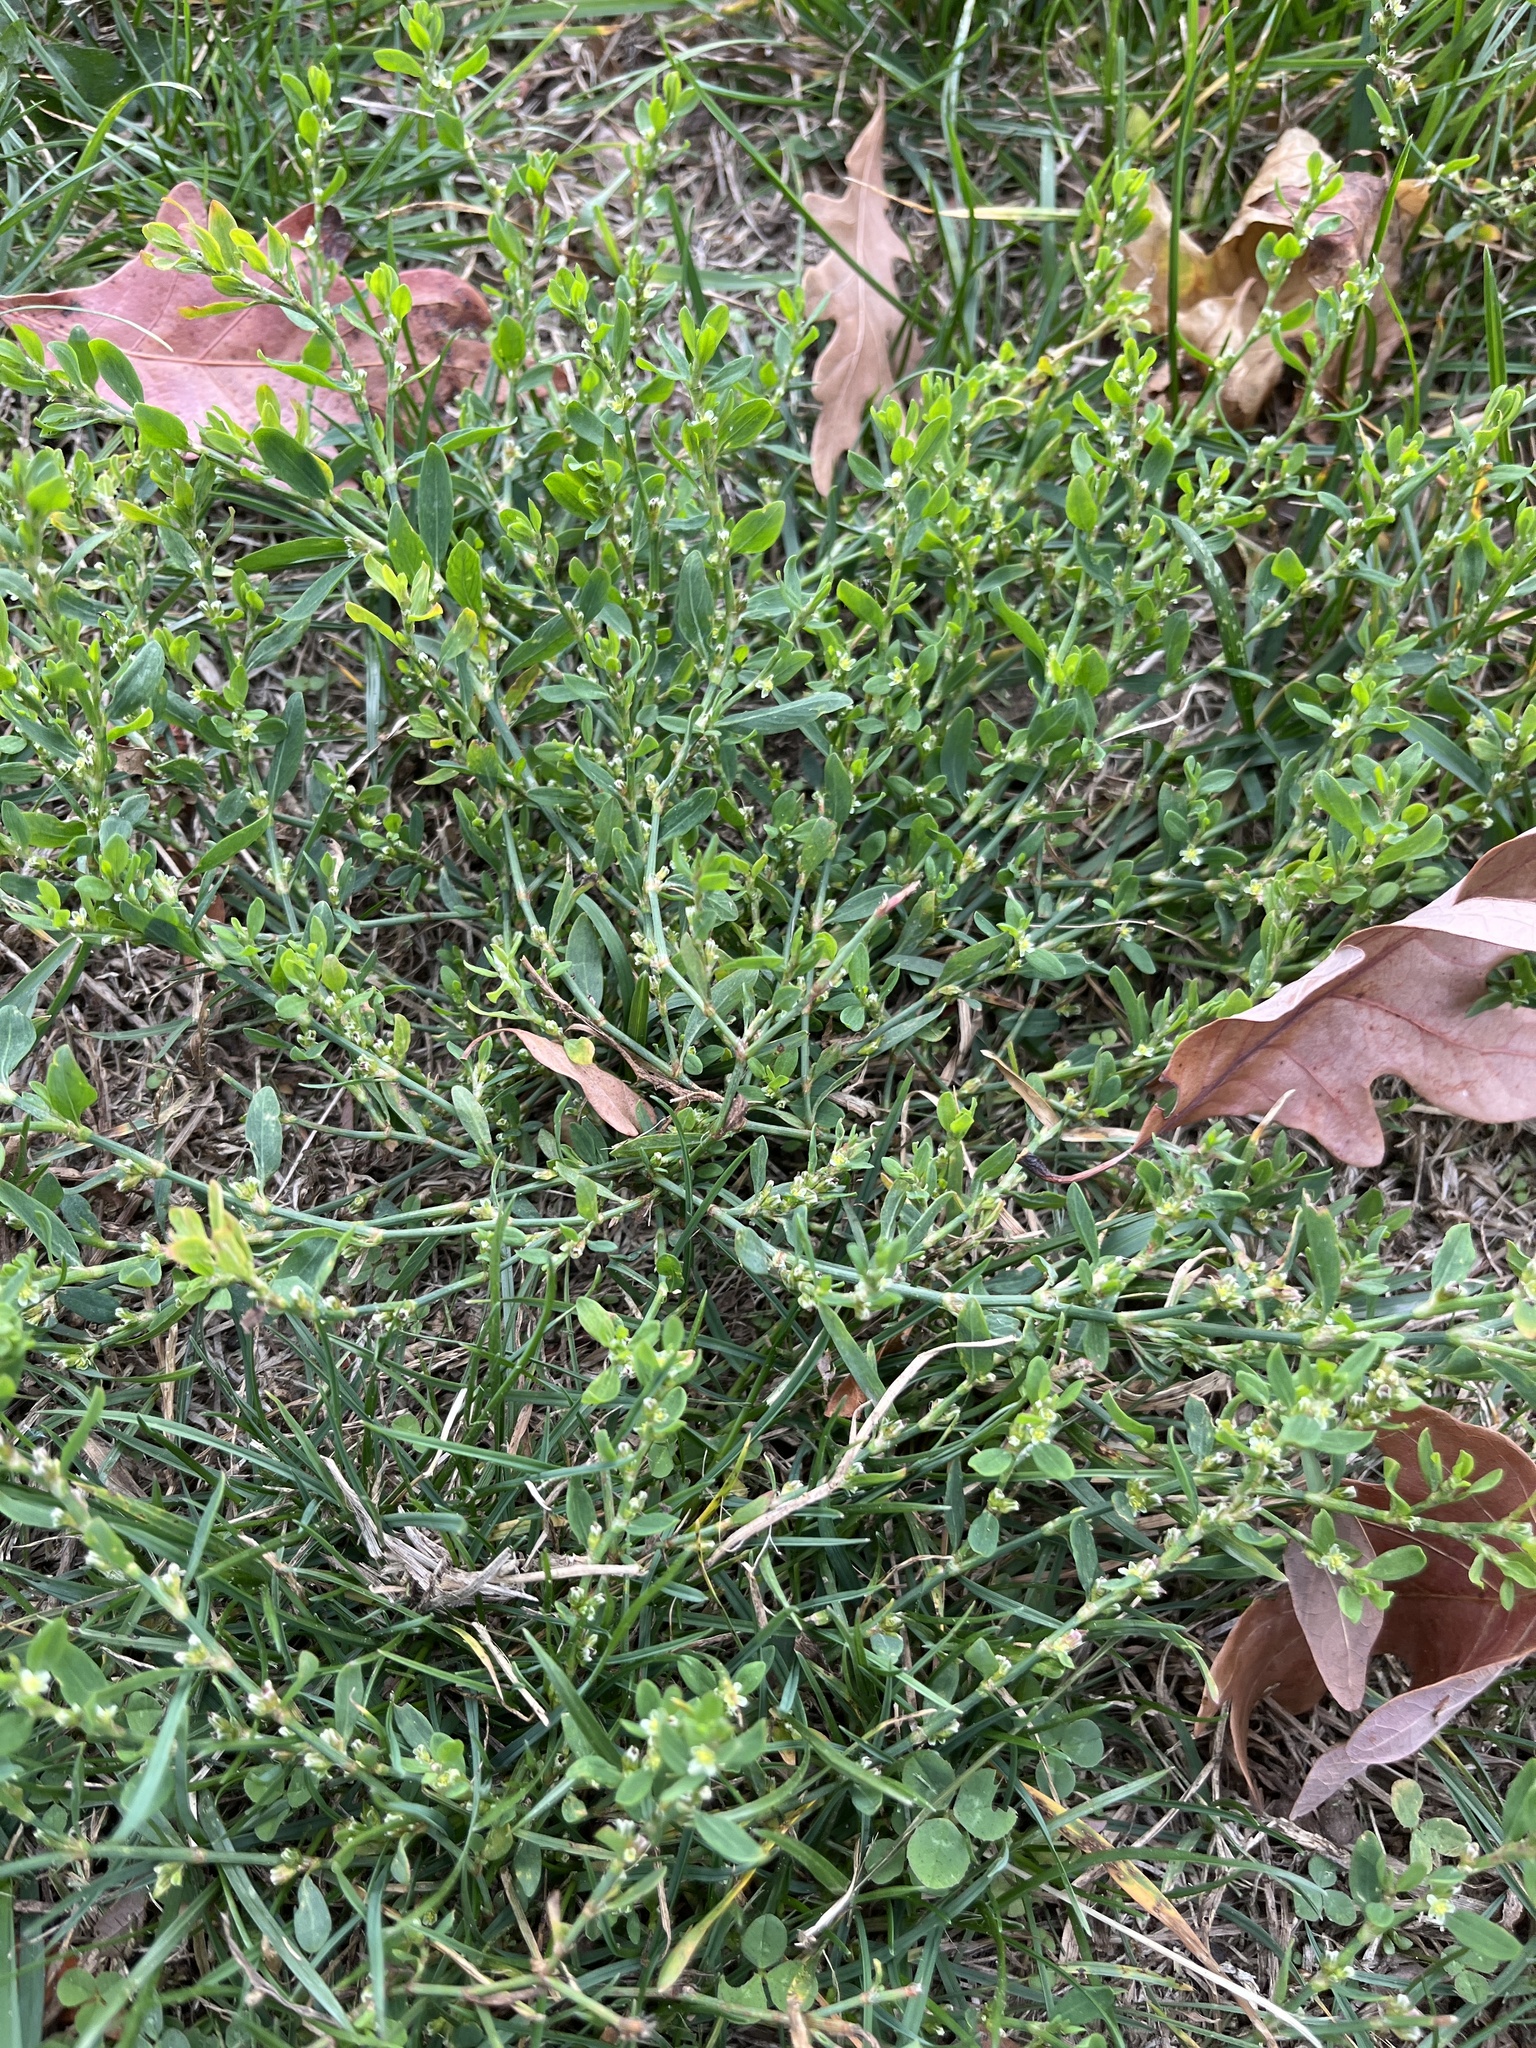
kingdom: Plantae
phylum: Tracheophyta
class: Magnoliopsida
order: Caryophyllales
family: Polygonaceae
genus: Polygonum
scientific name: Polygonum aviculare
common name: Prostrate knotweed
